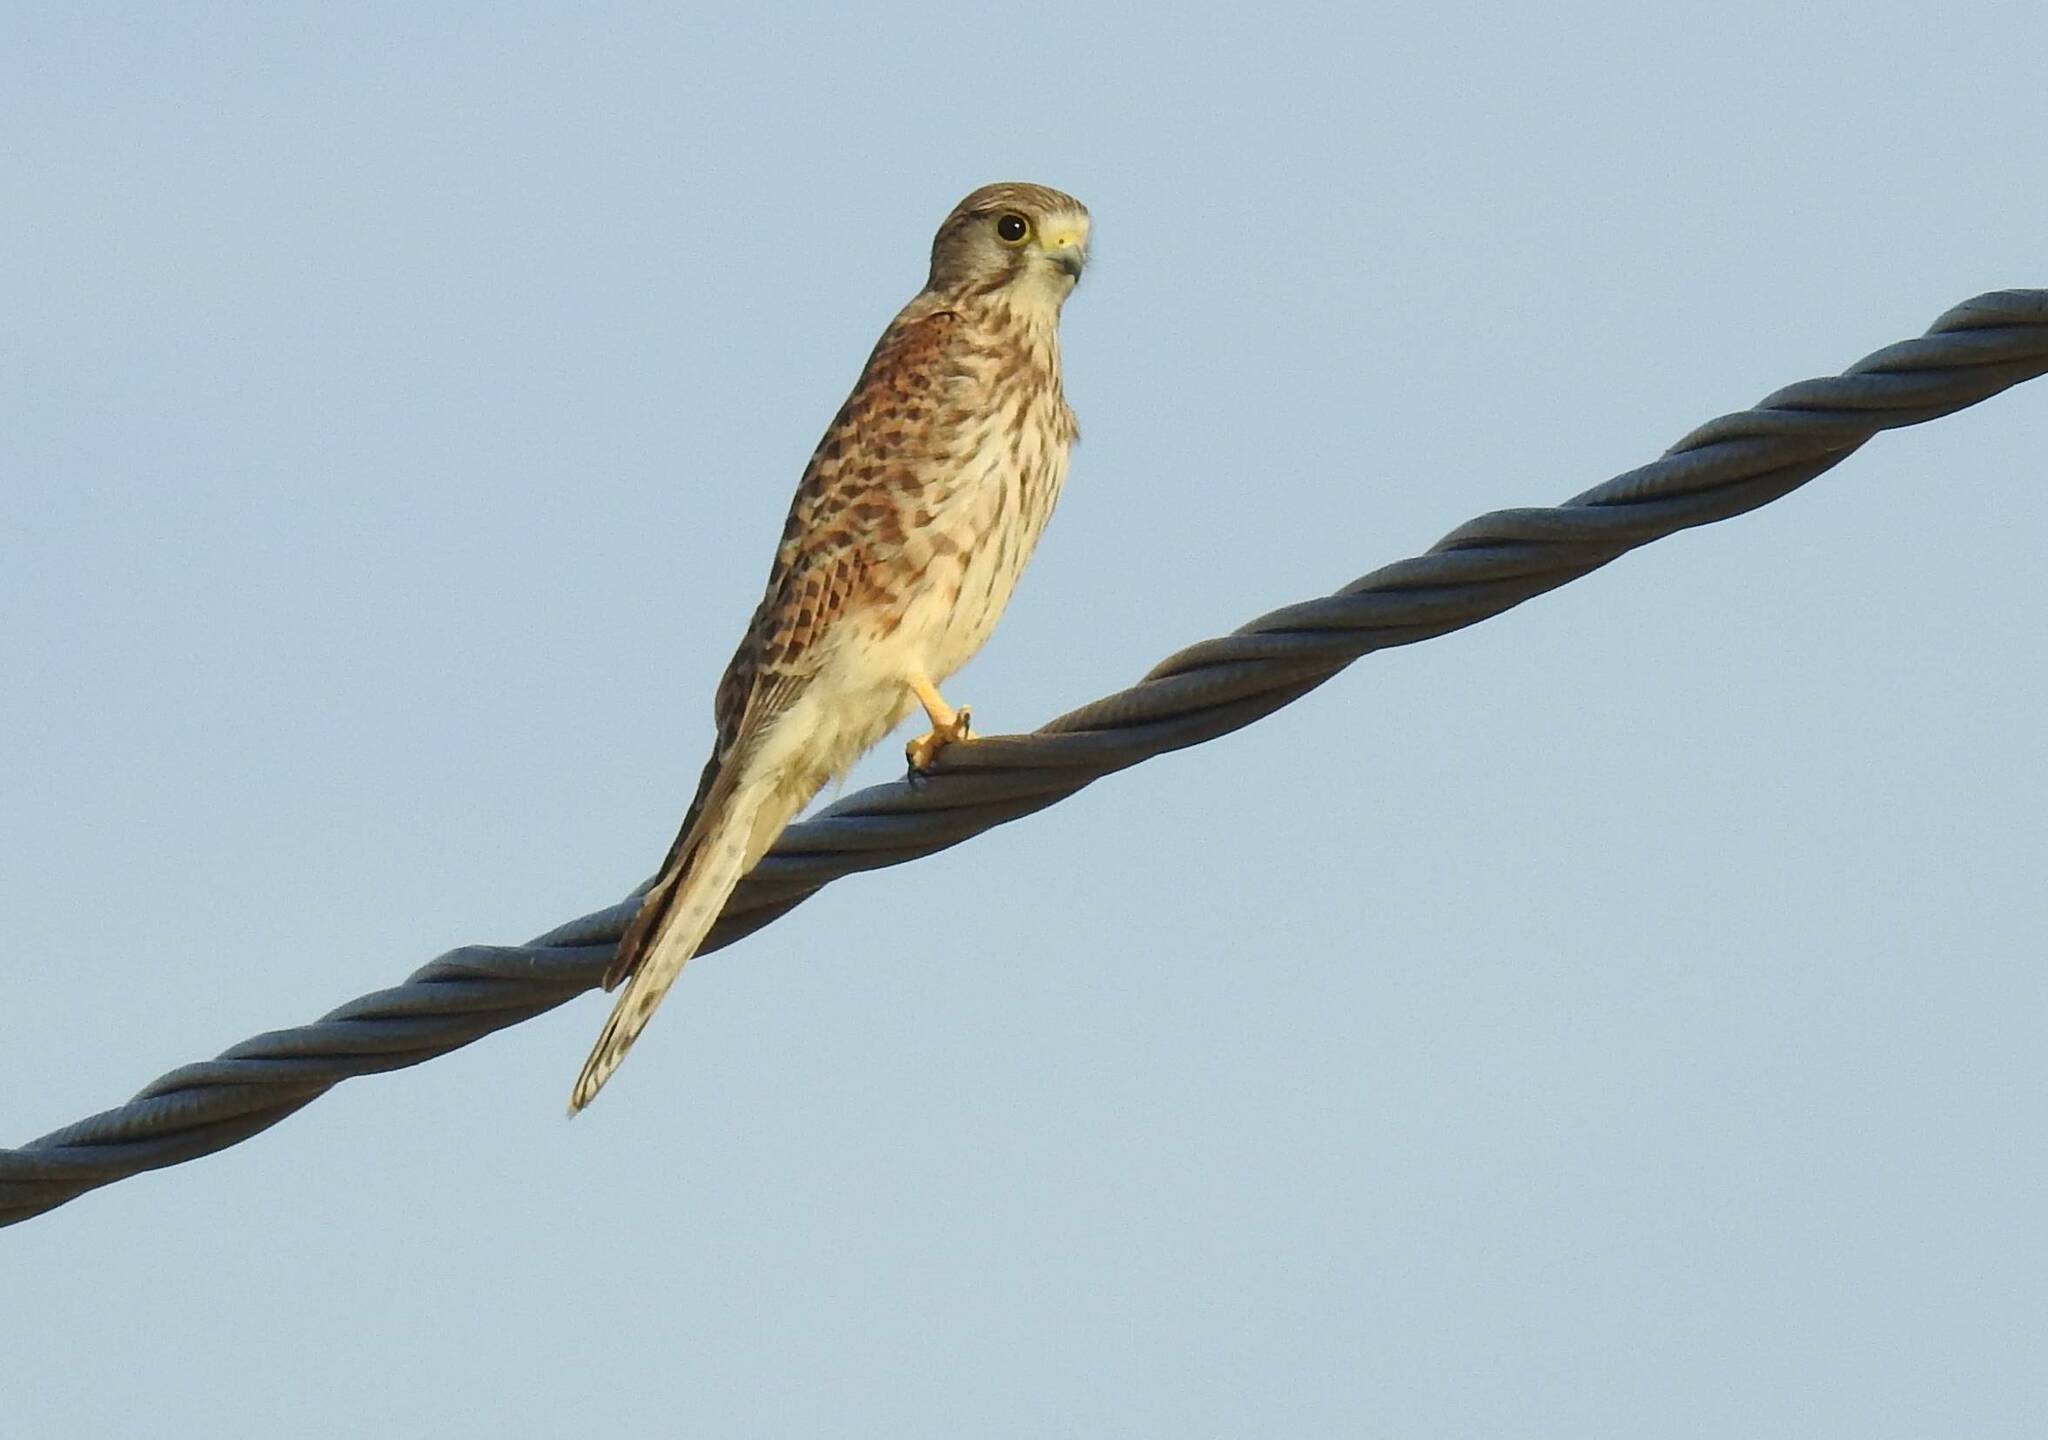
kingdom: Animalia
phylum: Chordata
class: Aves
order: Falconiformes
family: Falconidae
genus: Falco
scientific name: Falco tinnunculus
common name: Common kestrel
